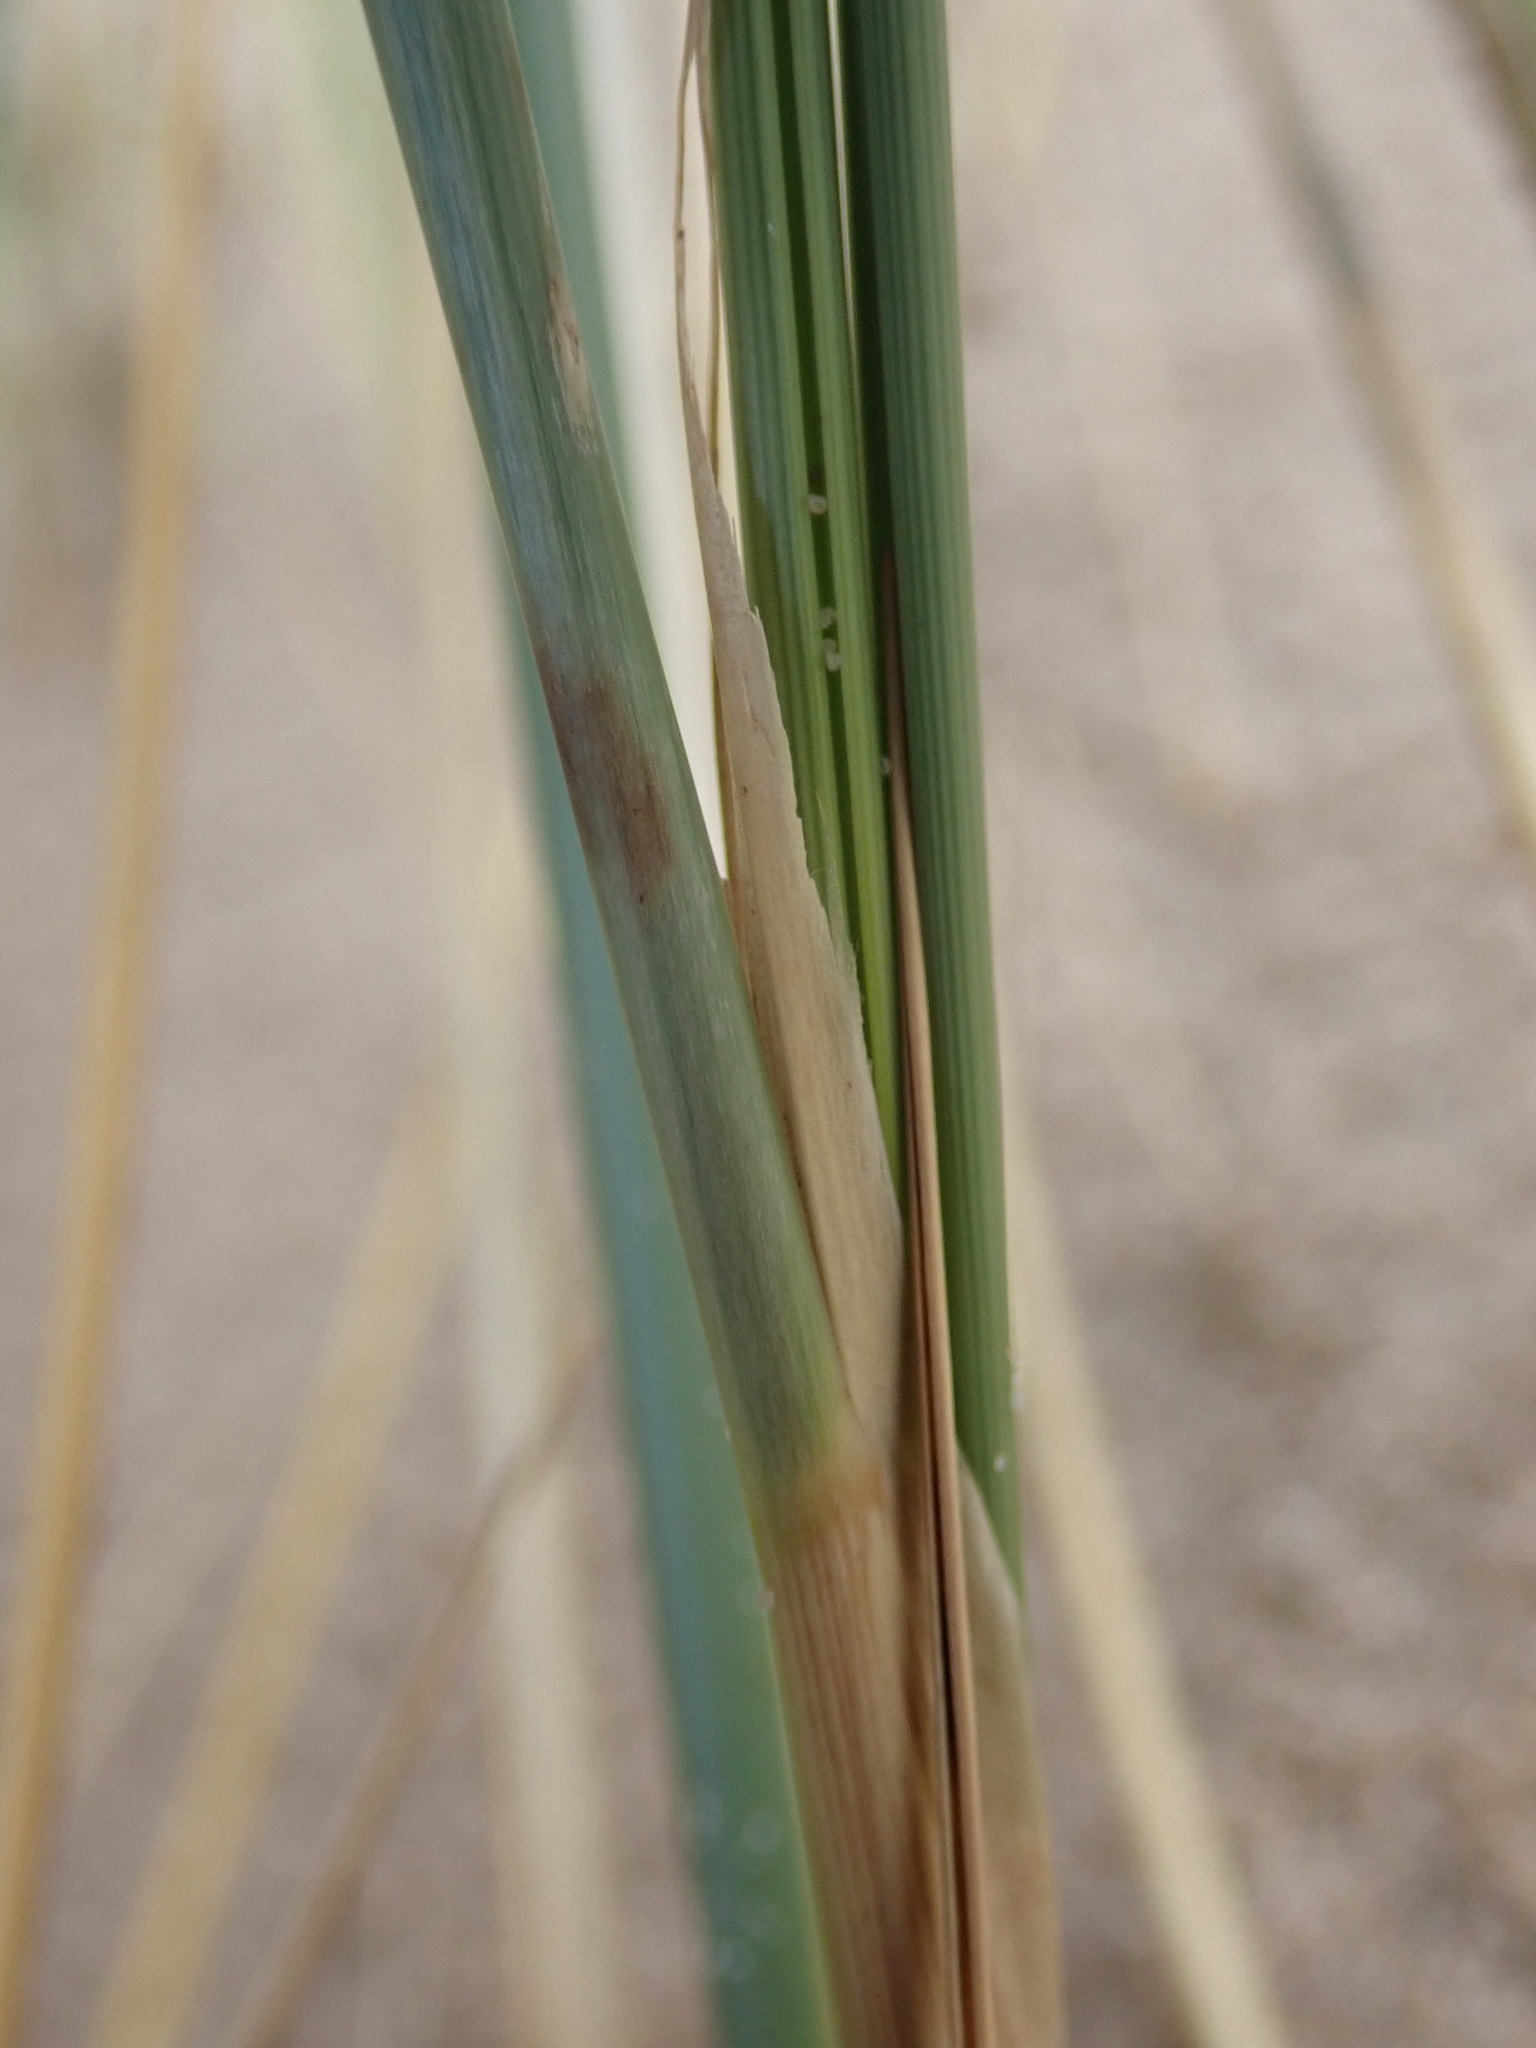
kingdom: Plantae
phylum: Tracheophyta
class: Liliopsida
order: Poales
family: Poaceae
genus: Calamagrostis
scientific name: Calamagrostis arenaria
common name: European beachgrass
